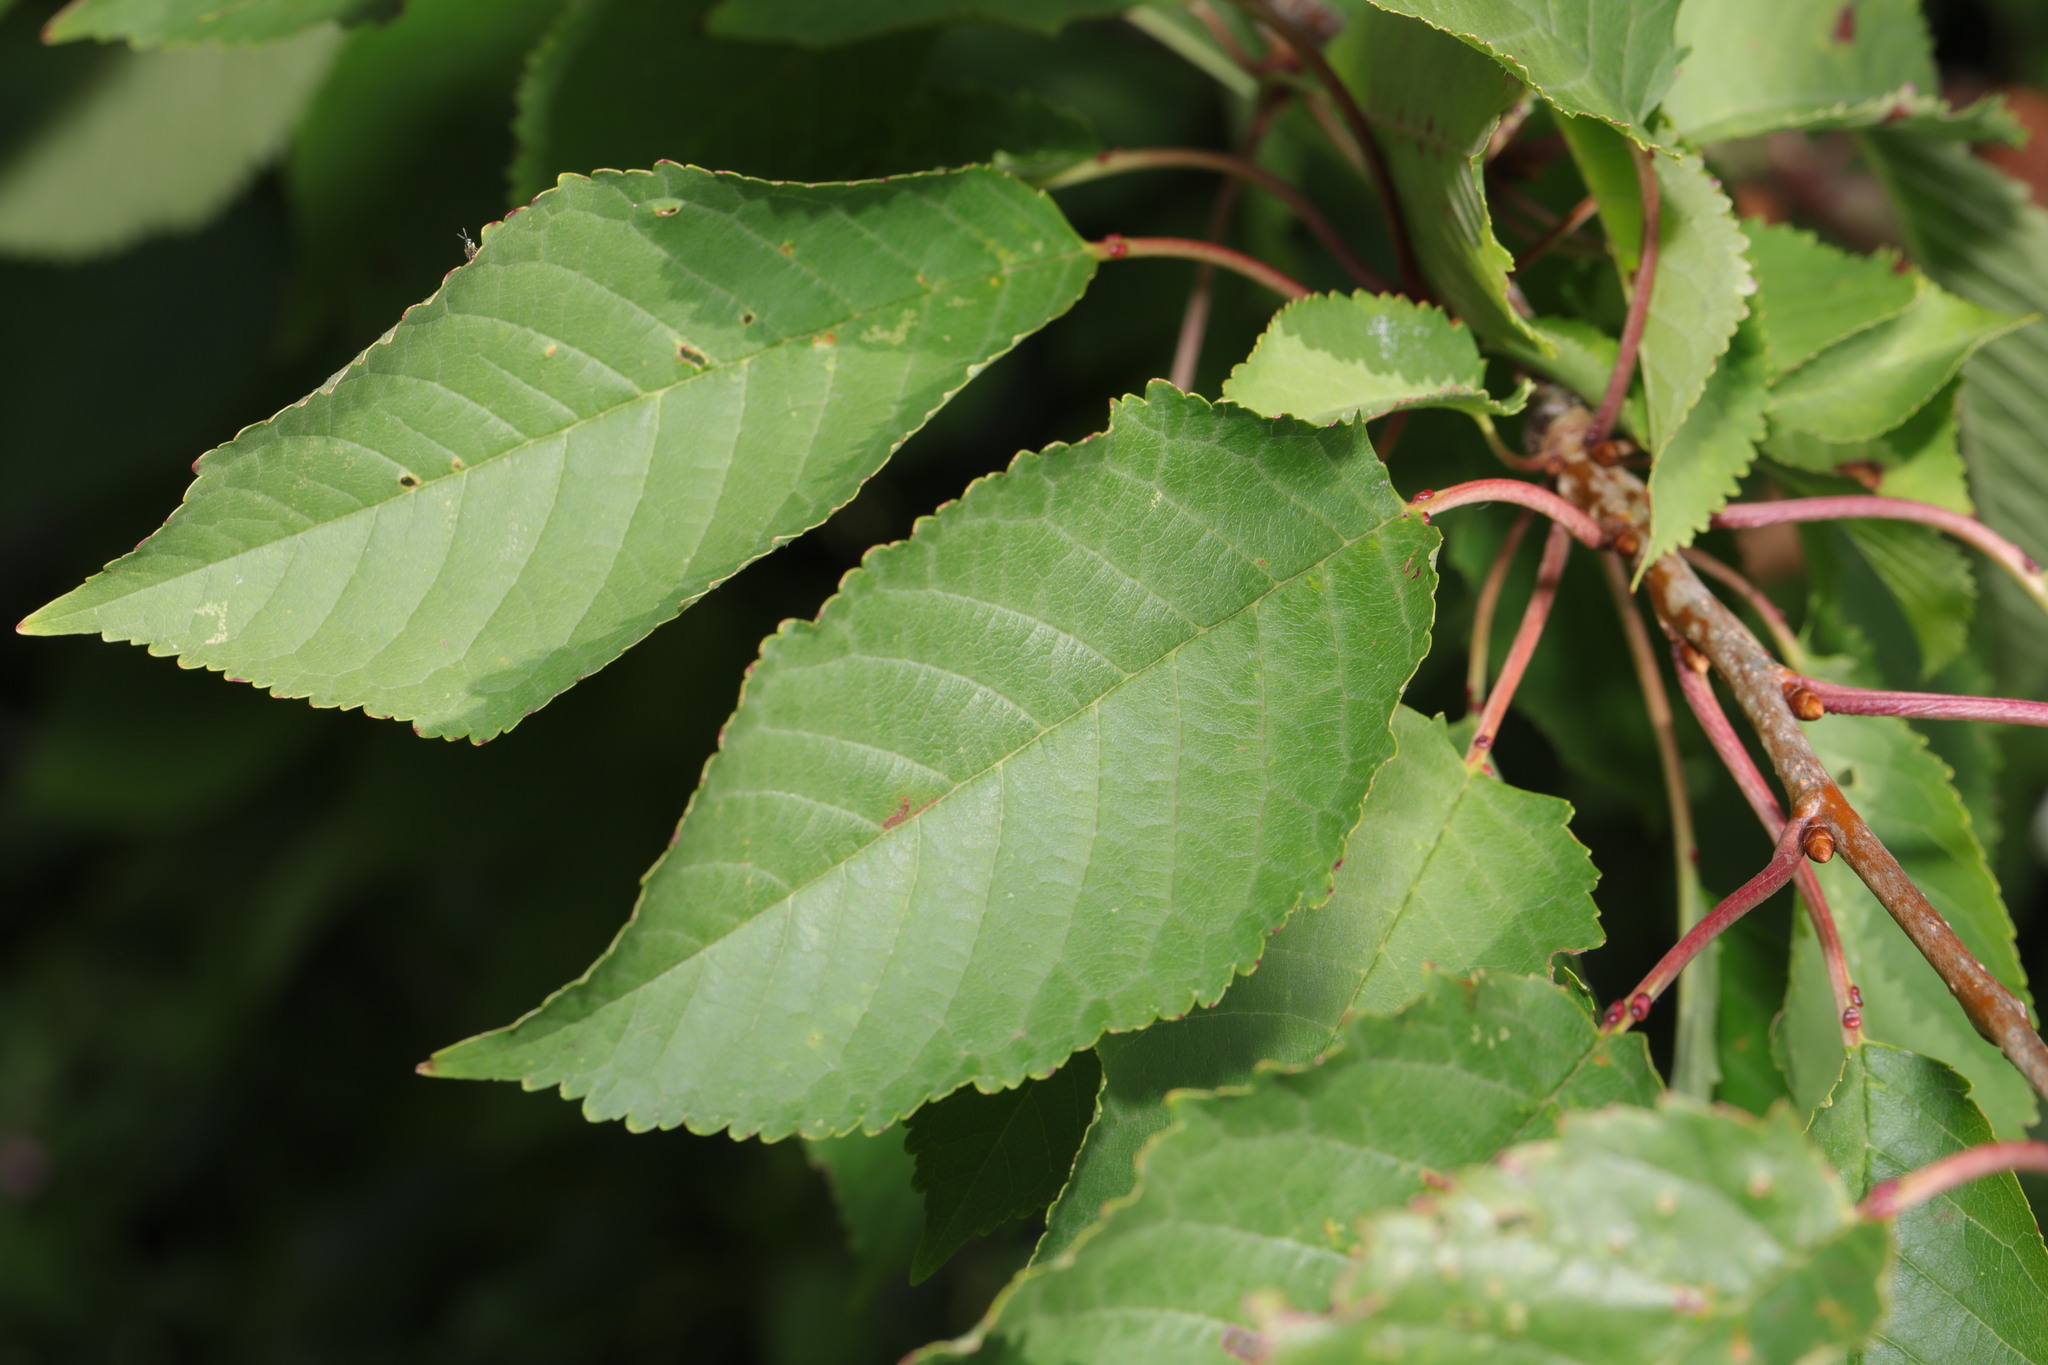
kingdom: Plantae
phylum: Tracheophyta
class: Magnoliopsida
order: Rosales
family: Rosaceae
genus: Prunus
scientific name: Prunus avium
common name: Sweet cherry
